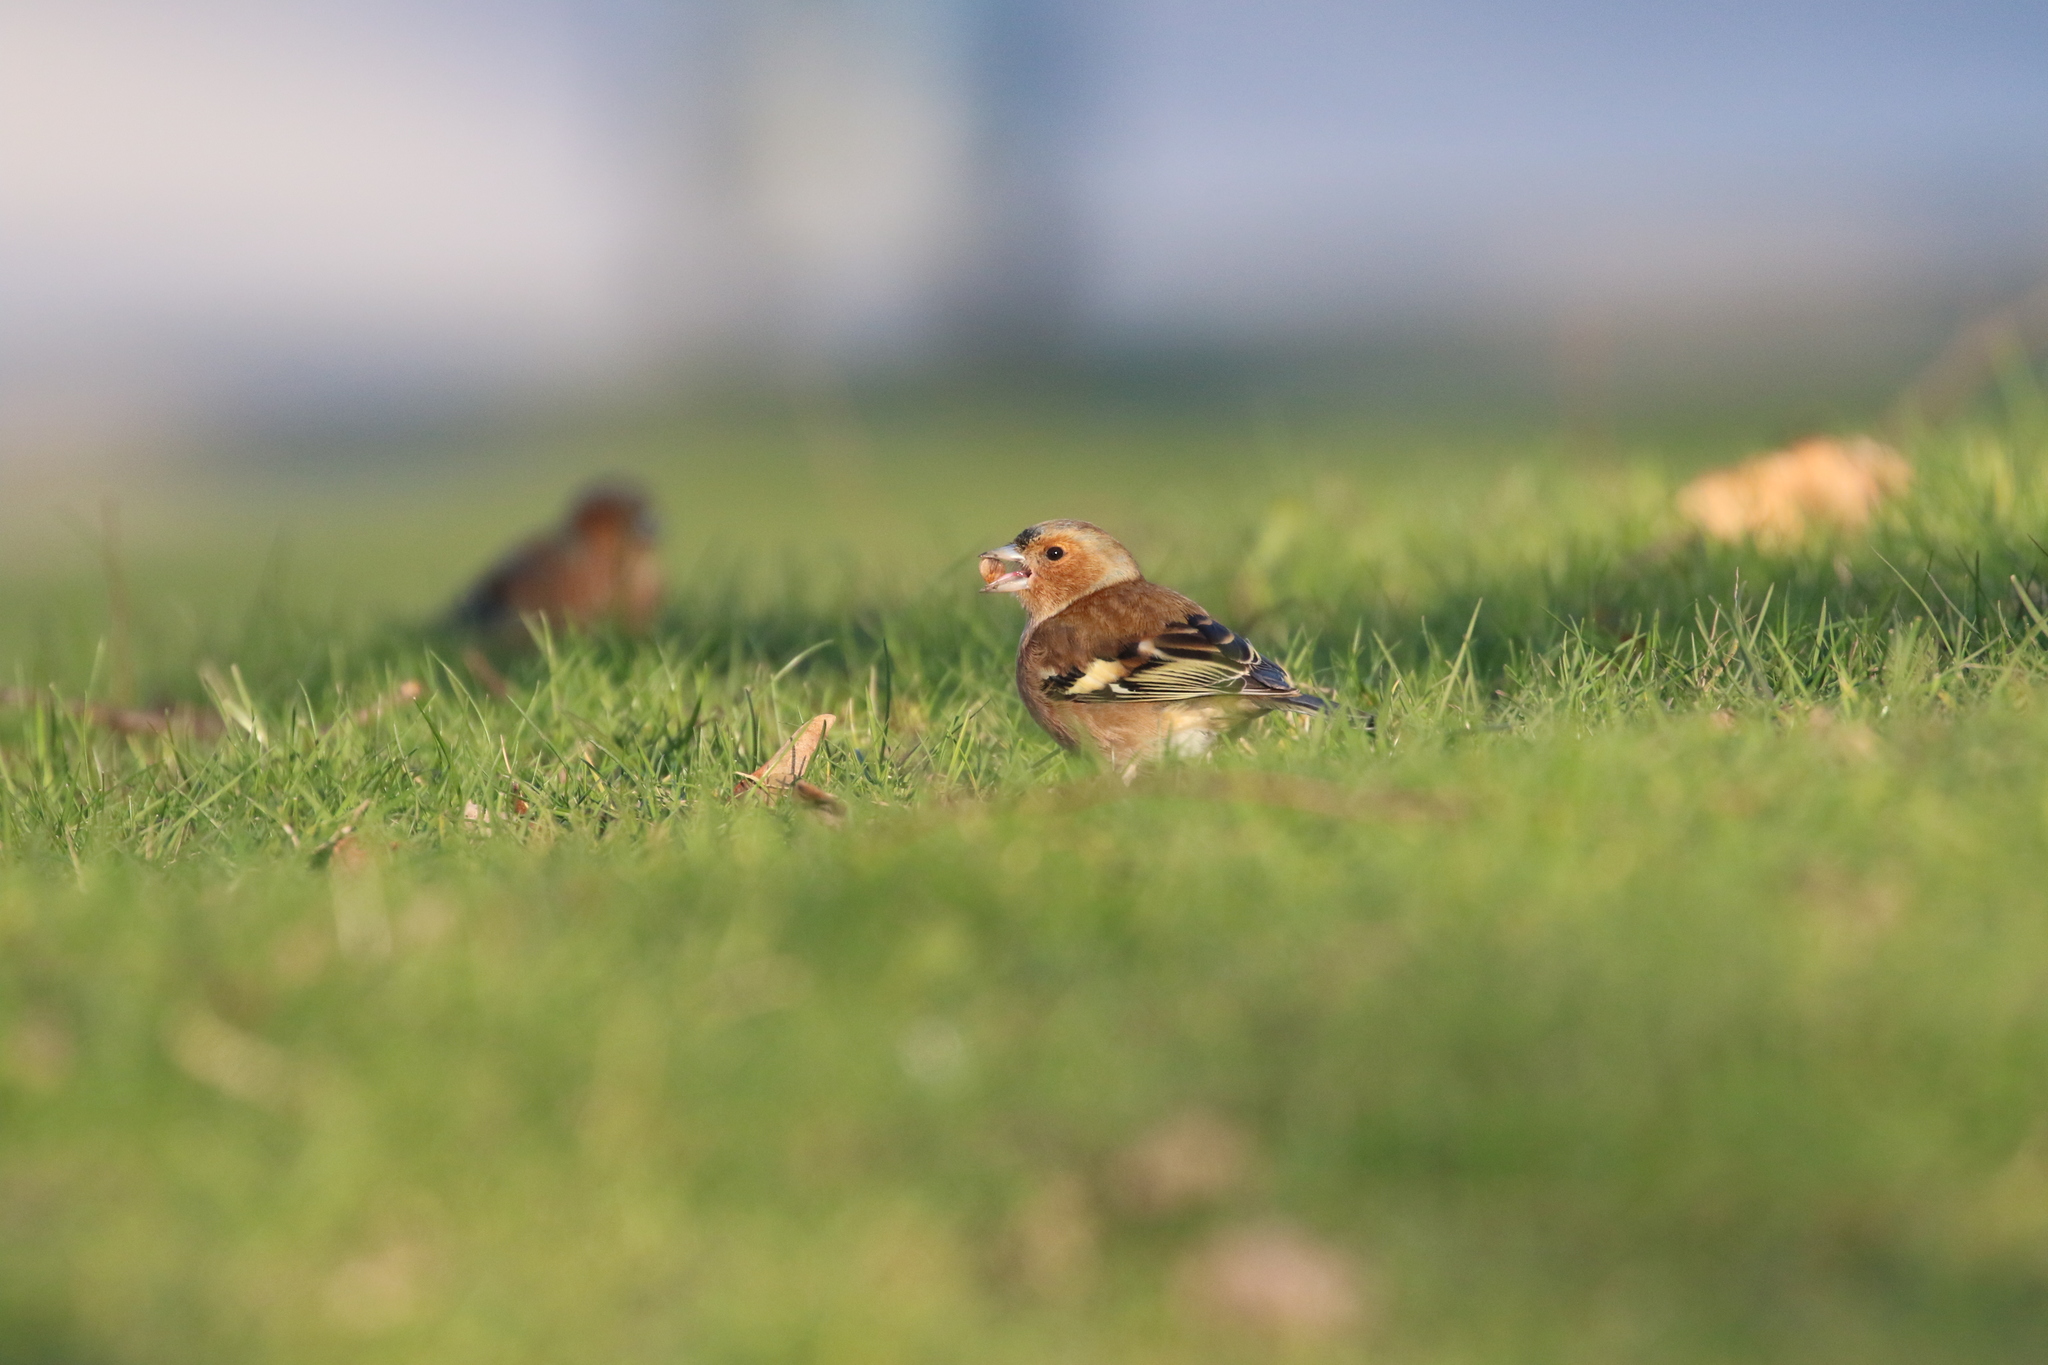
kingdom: Animalia
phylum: Chordata
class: Aves
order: Passeriformes
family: Fringillidae
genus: Fringilla
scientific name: Fringilla coelebs
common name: Common chaffinch
